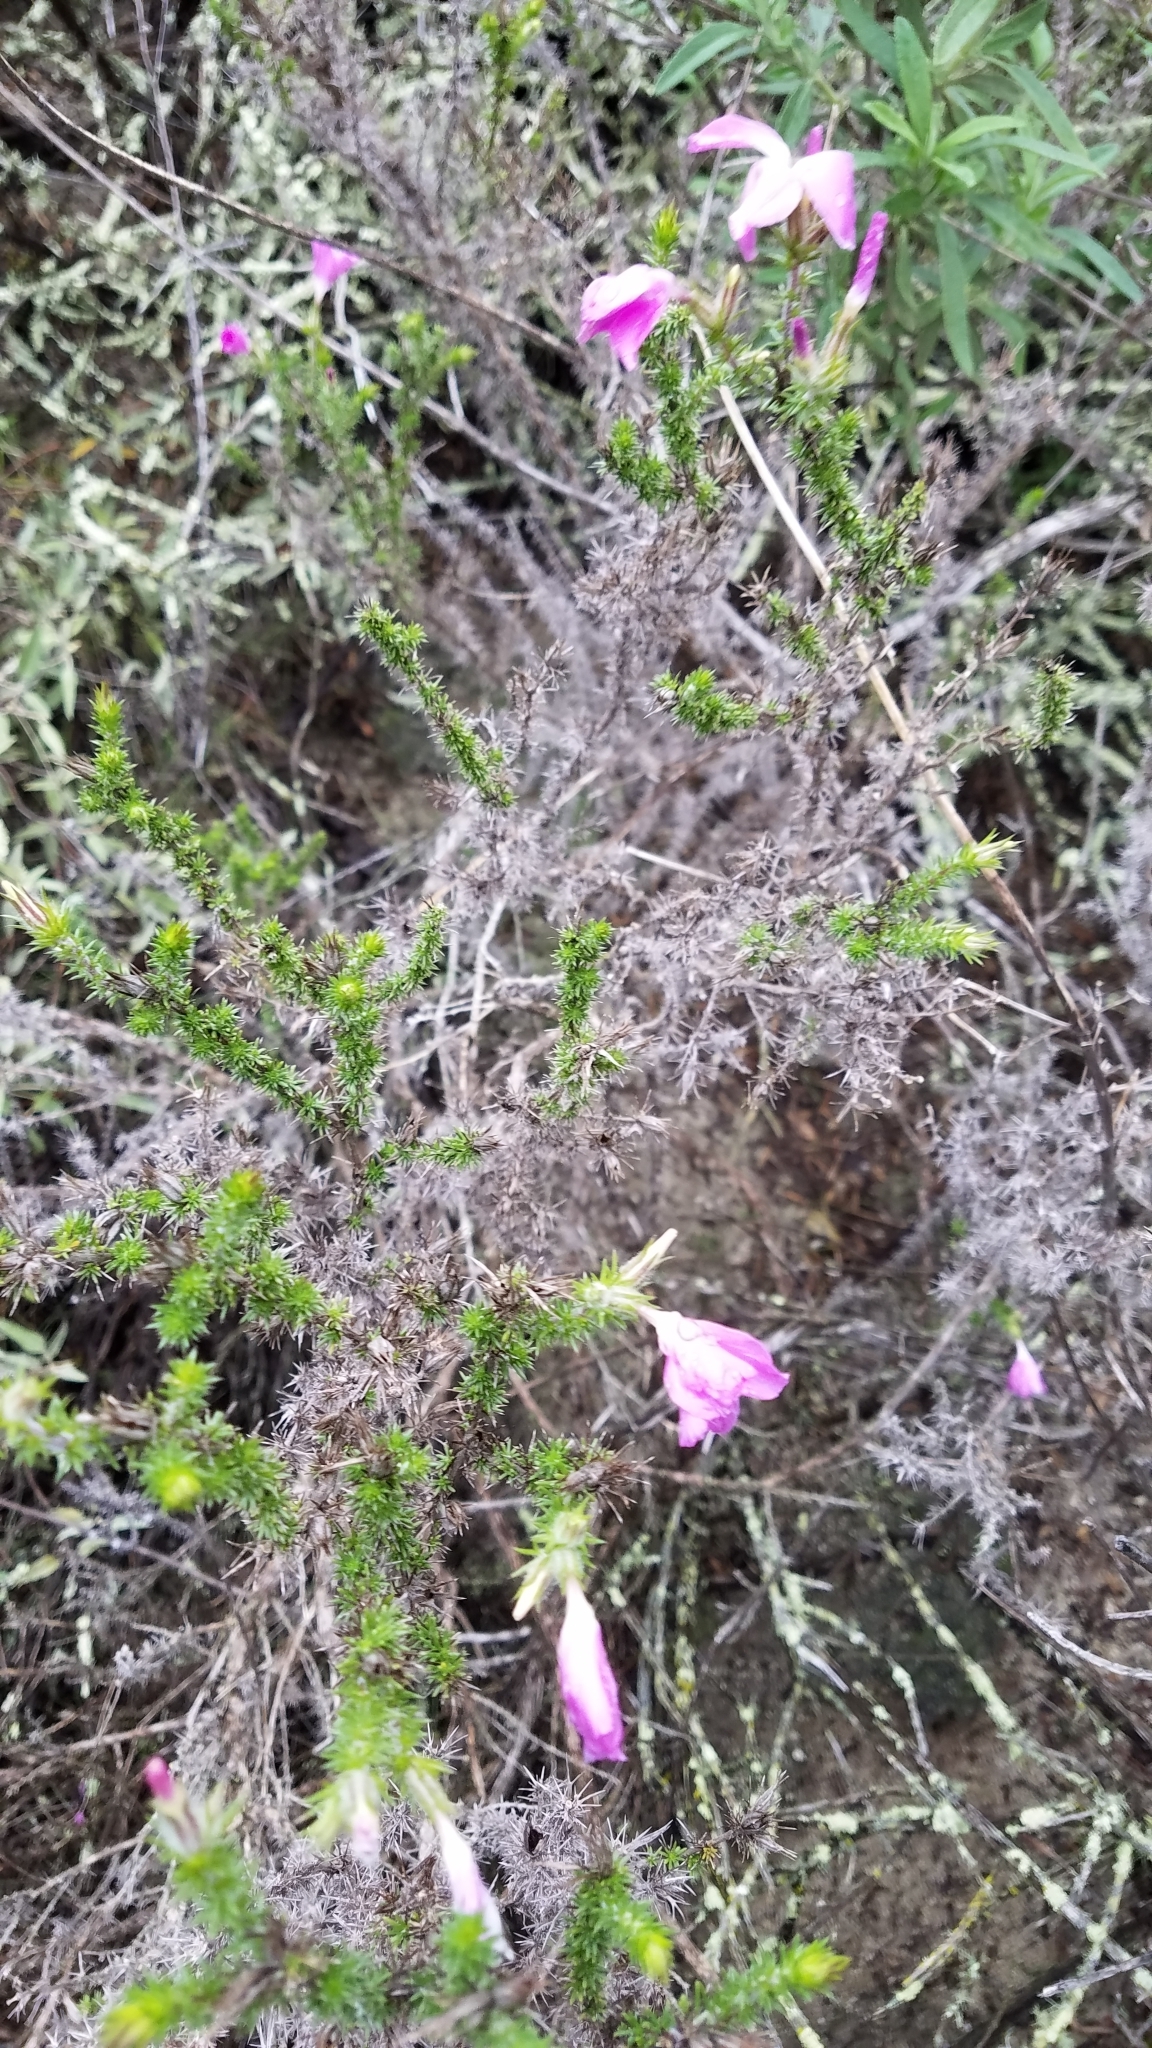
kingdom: Plantae
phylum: Tracheophyta
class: Magnoliopsida
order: Ericales
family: Polemoniaceae
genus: Linanthus
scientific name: Linanthus californicus
